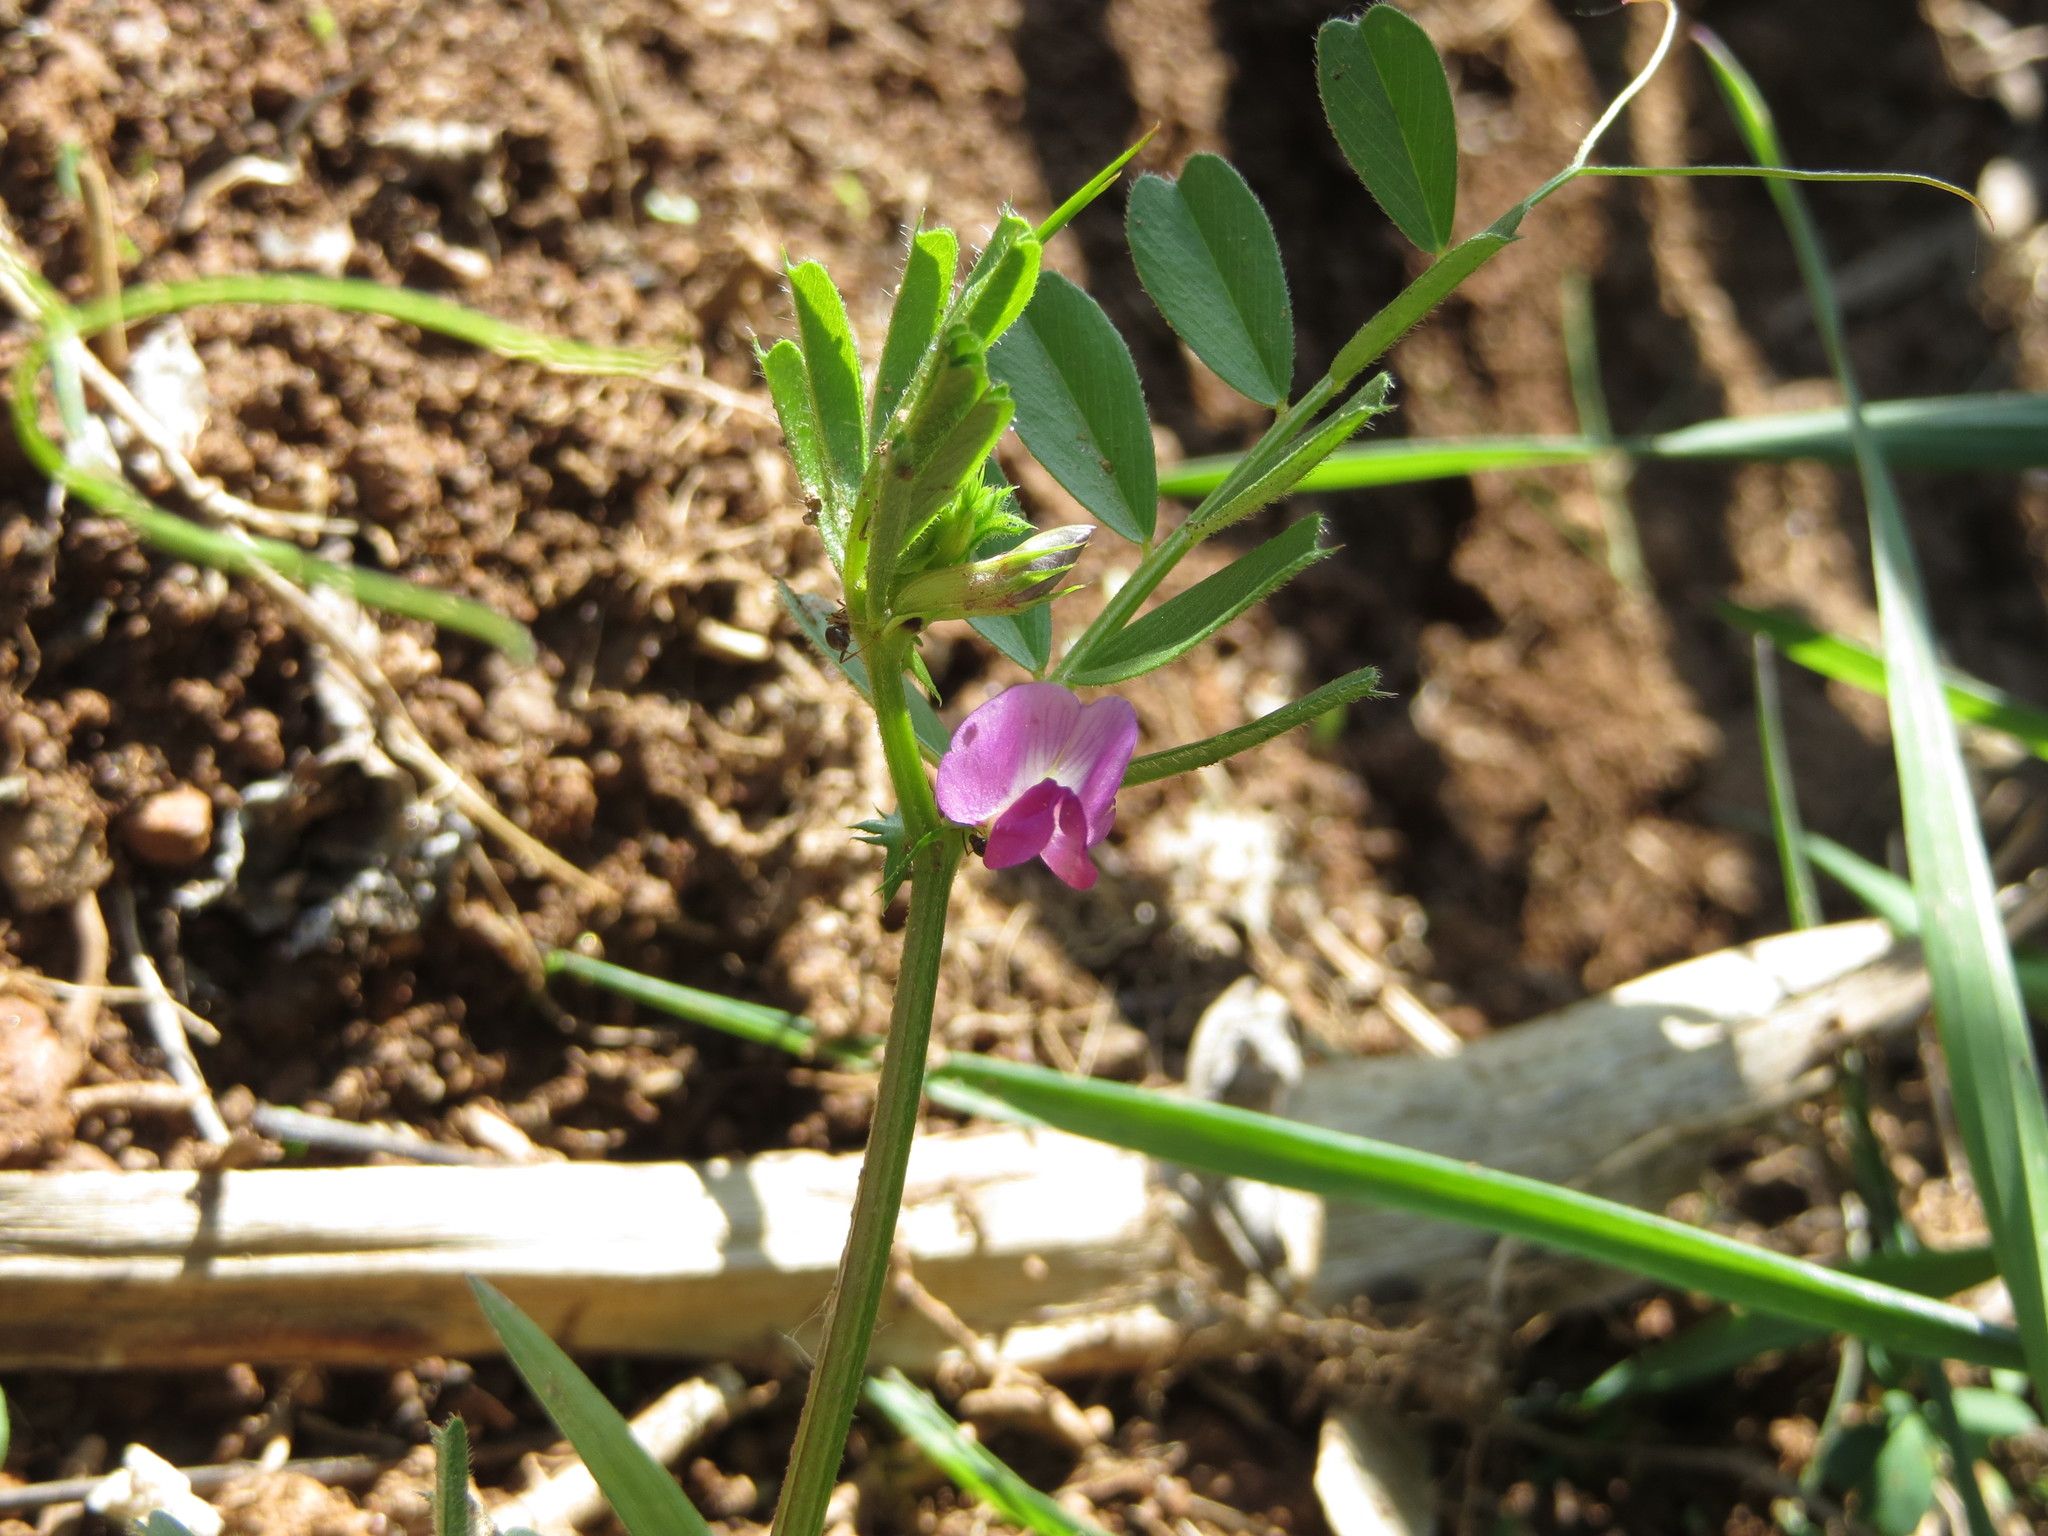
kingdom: Plantae
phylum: Tracheophyta
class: Magnoliopsida
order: Fabales
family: Fabaceae
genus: Vicia
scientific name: Vicia sativa
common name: Garden vetch
